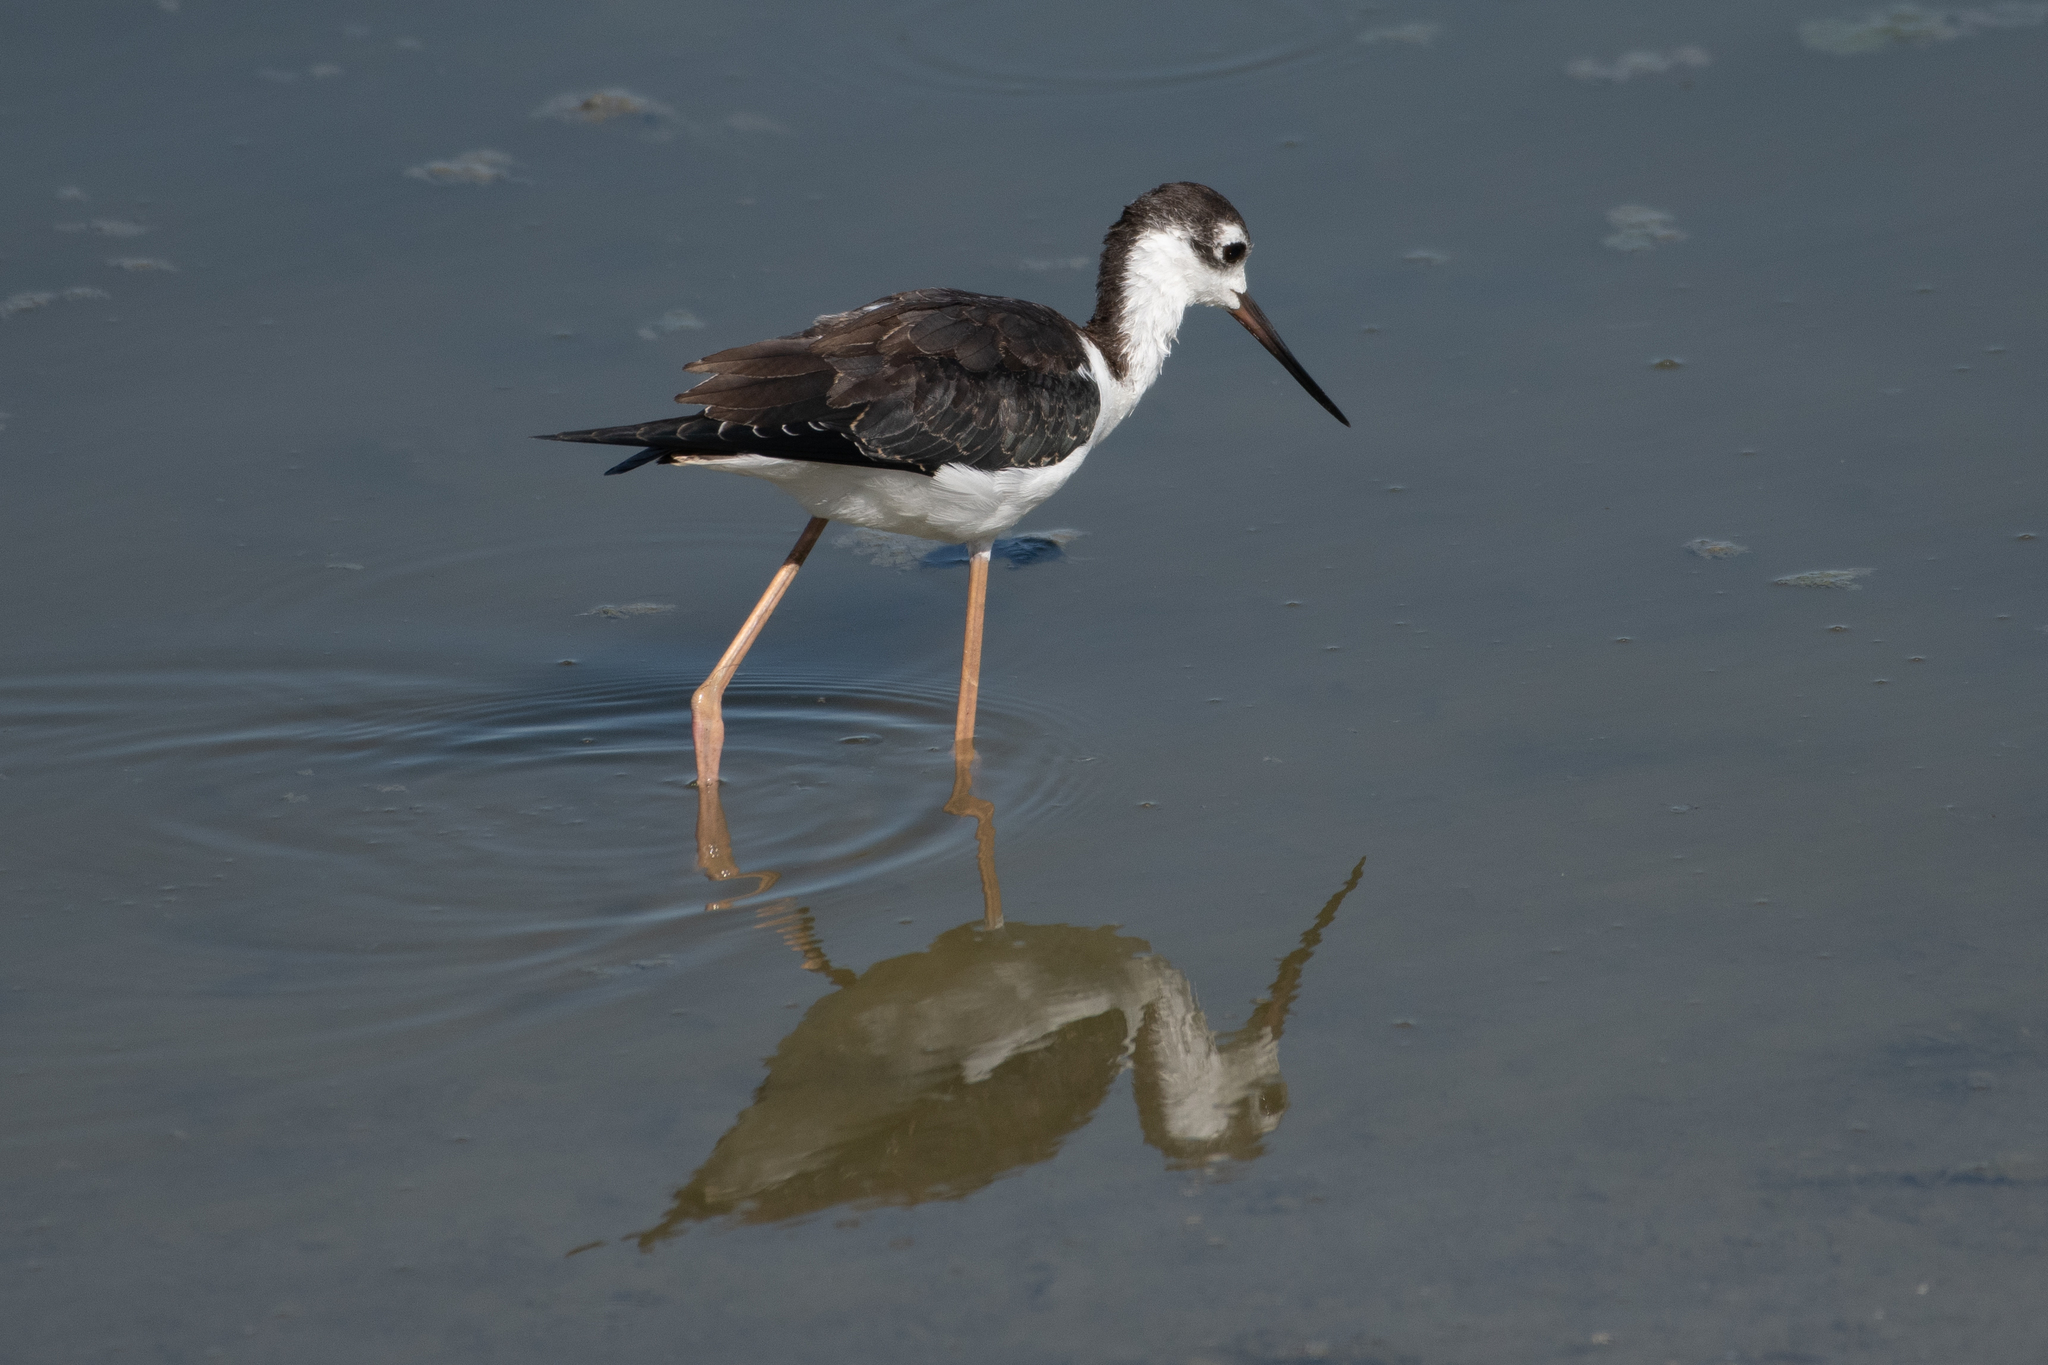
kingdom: Animalia
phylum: Chordata
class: Aves
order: Charadriiformes
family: Recurvirostridae
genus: Himantopus
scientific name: Himantopus mexicanus
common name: Black-necked stilt
